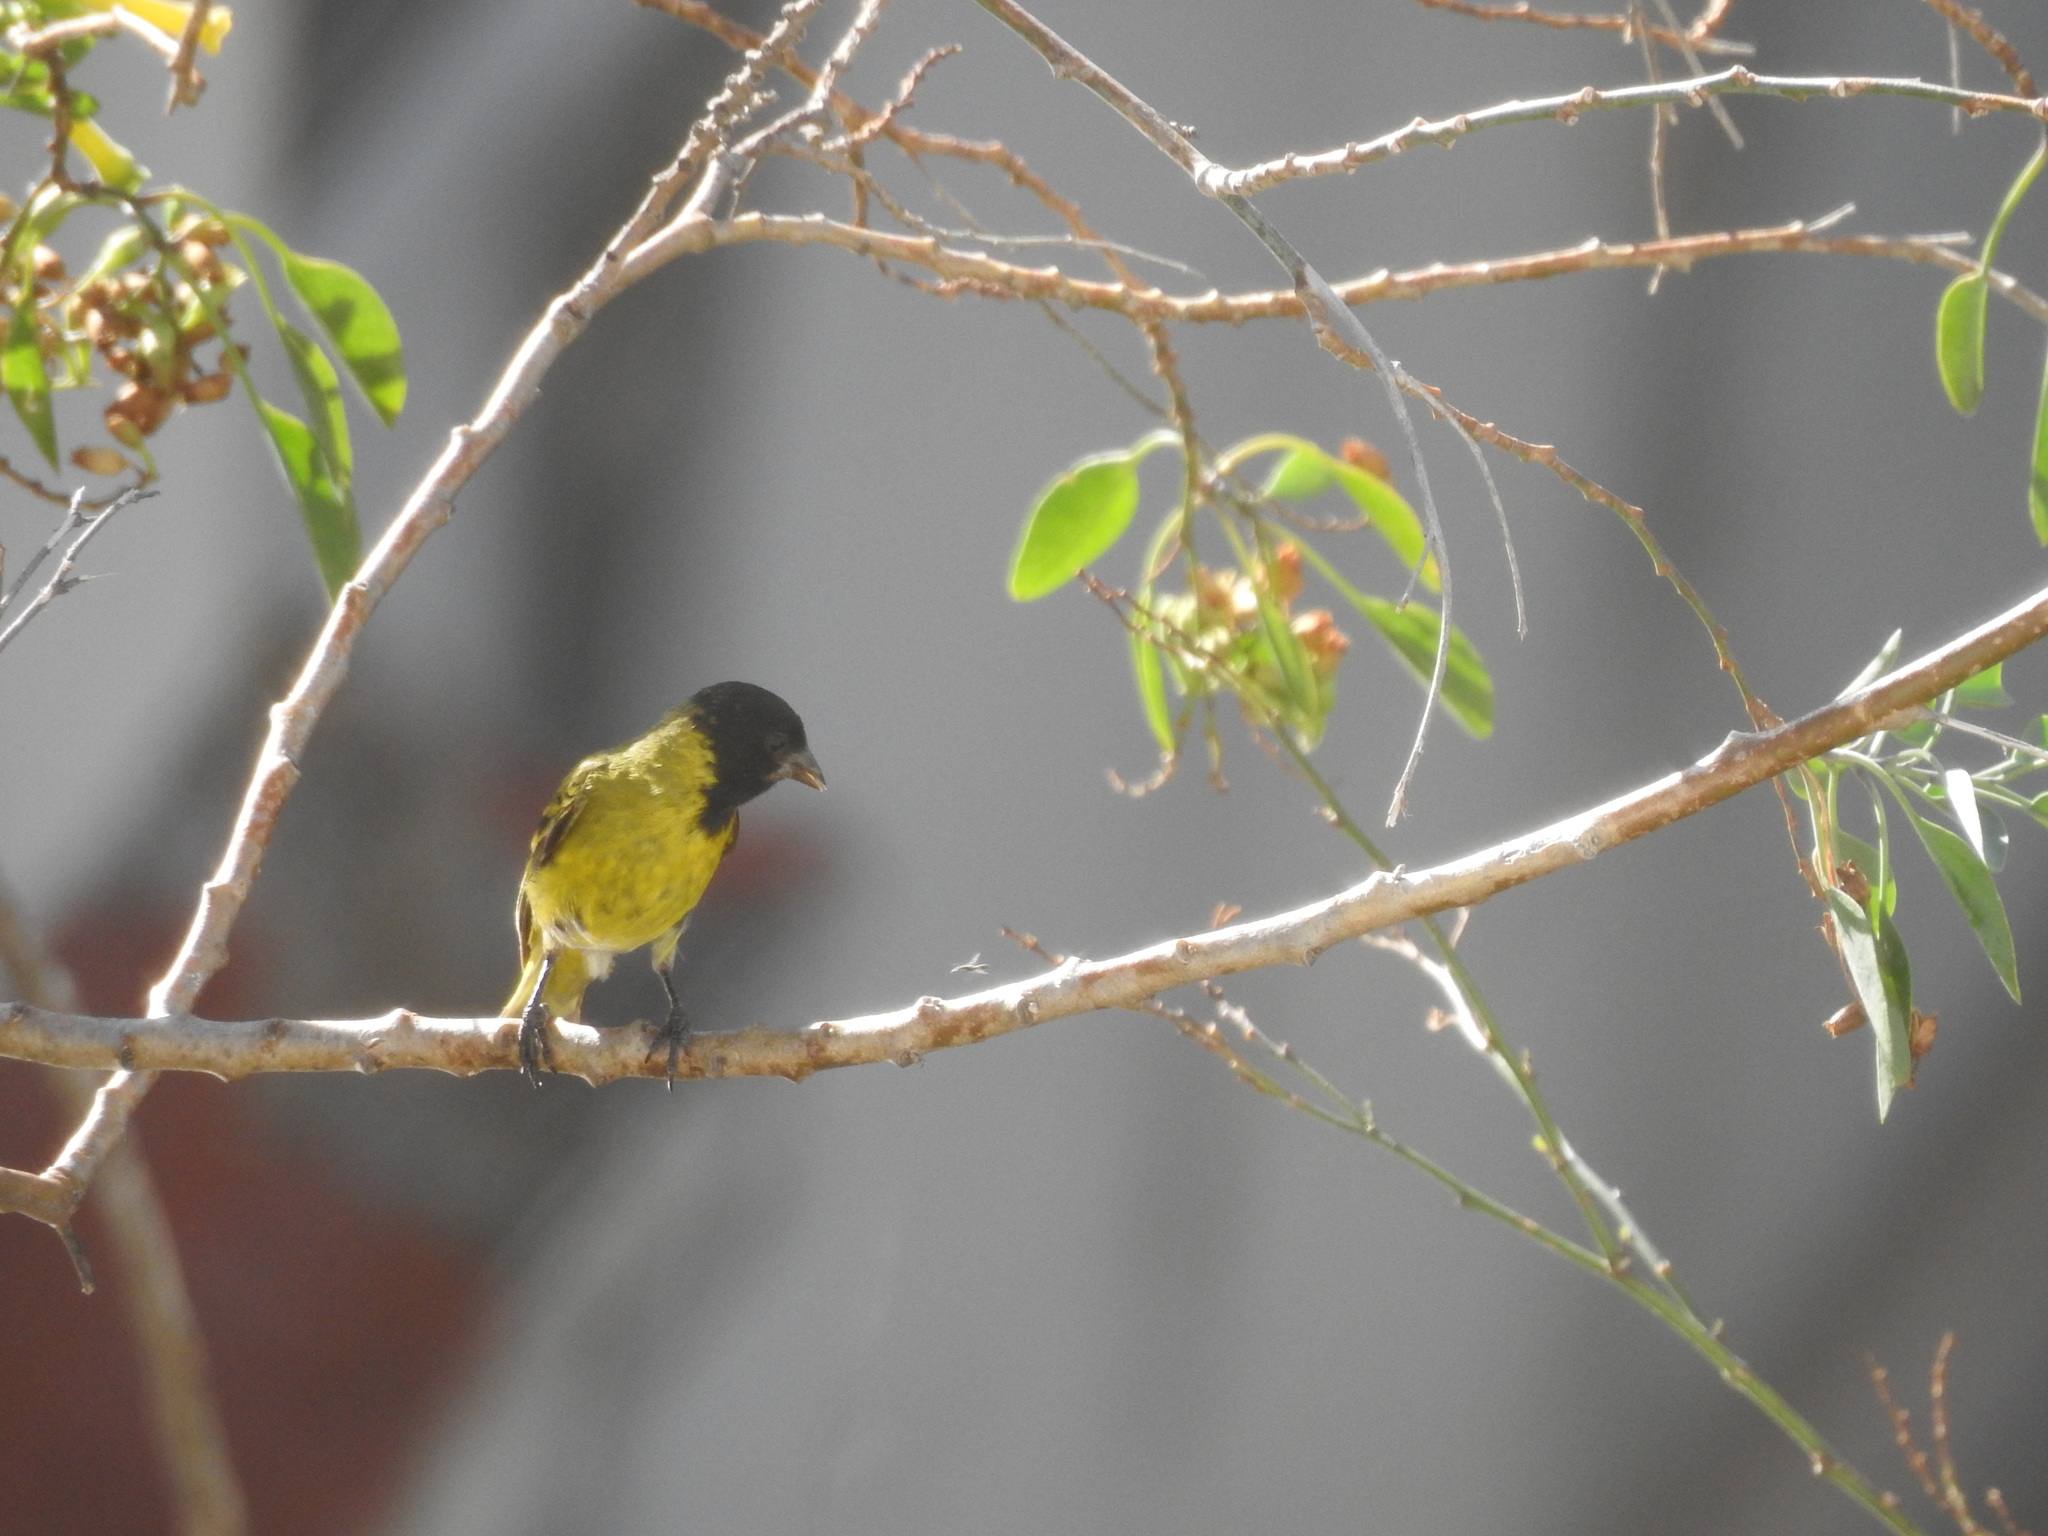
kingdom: Animalia
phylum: Chordata
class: Aves
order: Passeriformes
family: Fringillidae
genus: Spinus
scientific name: Spinus magellanicus
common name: Hooded siskin
